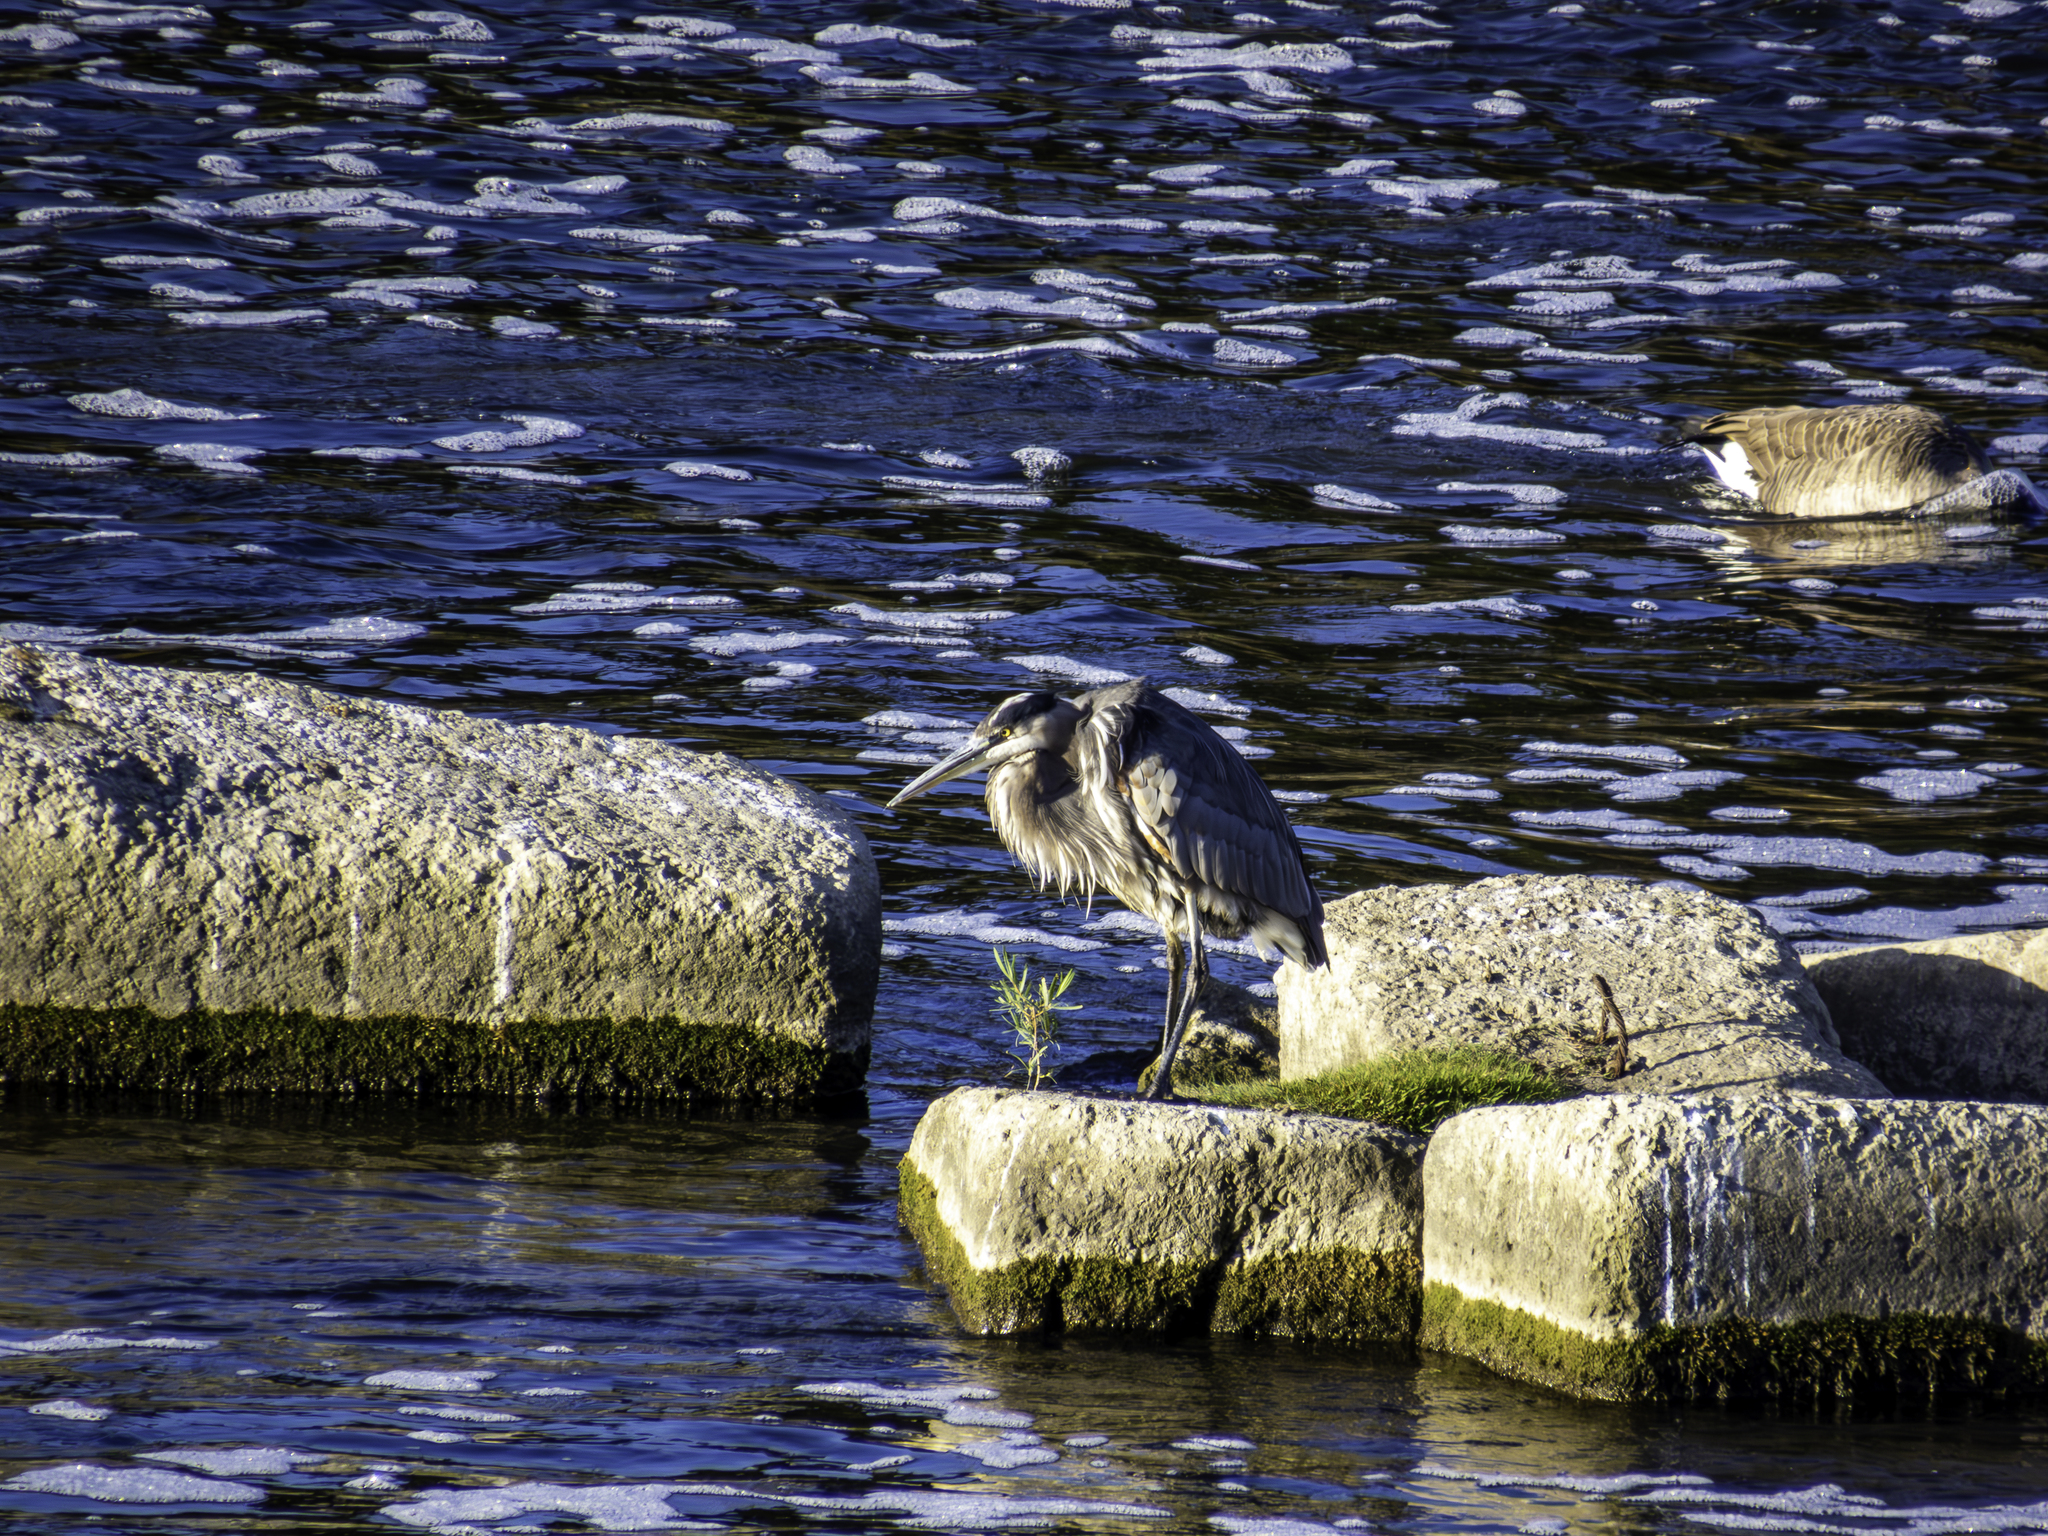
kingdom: Animalia
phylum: Chordata
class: Aves
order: Pelecaniformes
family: Ardeidae
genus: Ardea
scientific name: Ardea herodias
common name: Great blue heron
